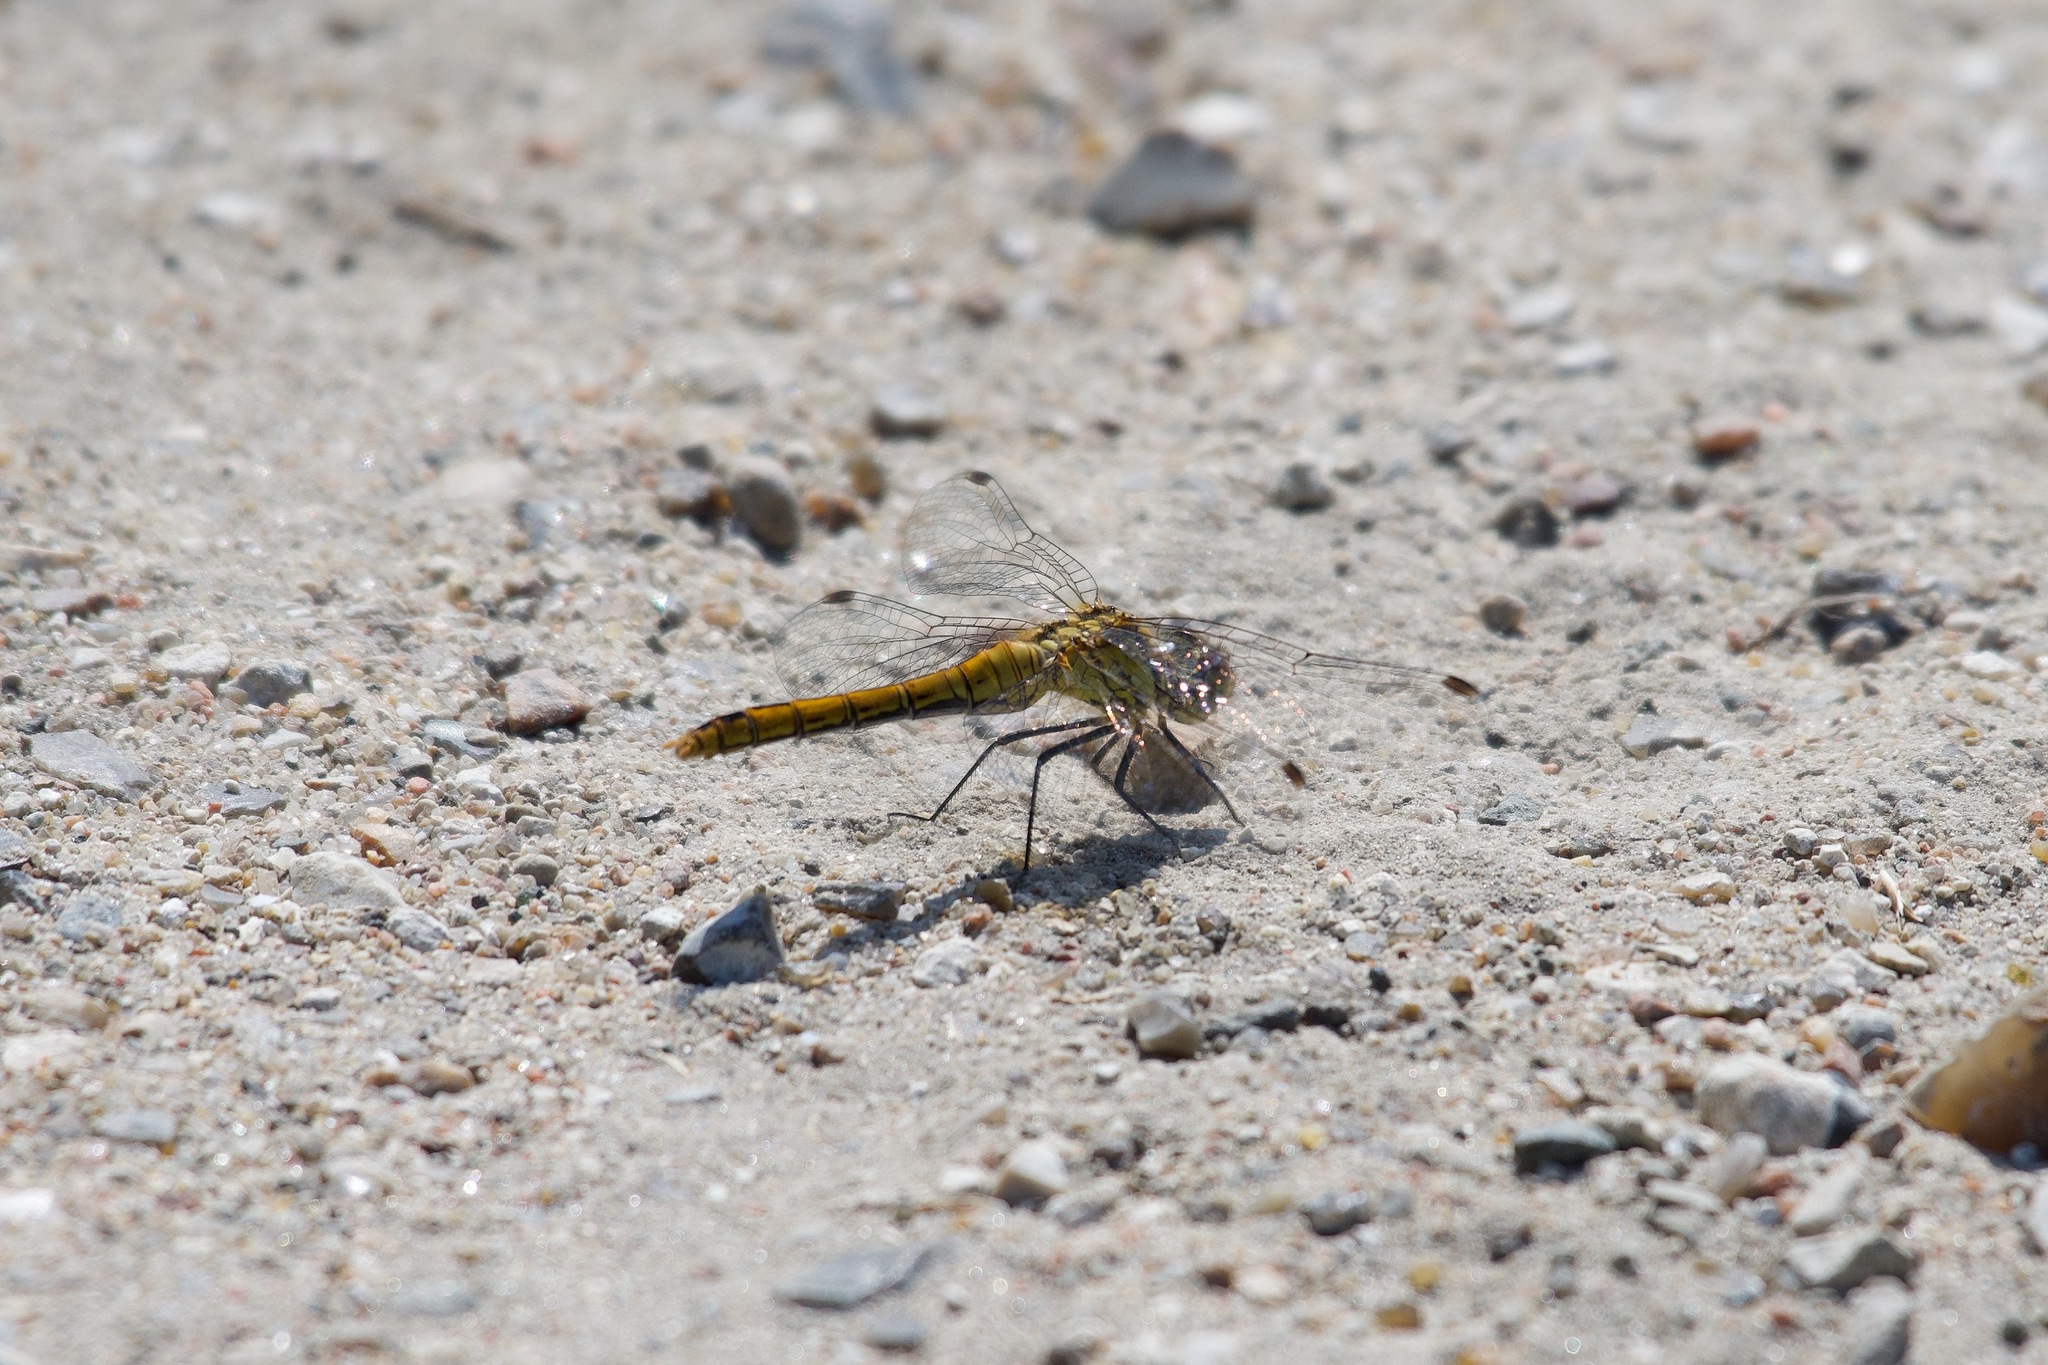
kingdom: Animalia
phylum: Arthropoda
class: Insecta
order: Odonata
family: Libellulidae
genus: Sympetrum
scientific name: Sympetrum sanguineum
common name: Ruddy darter
